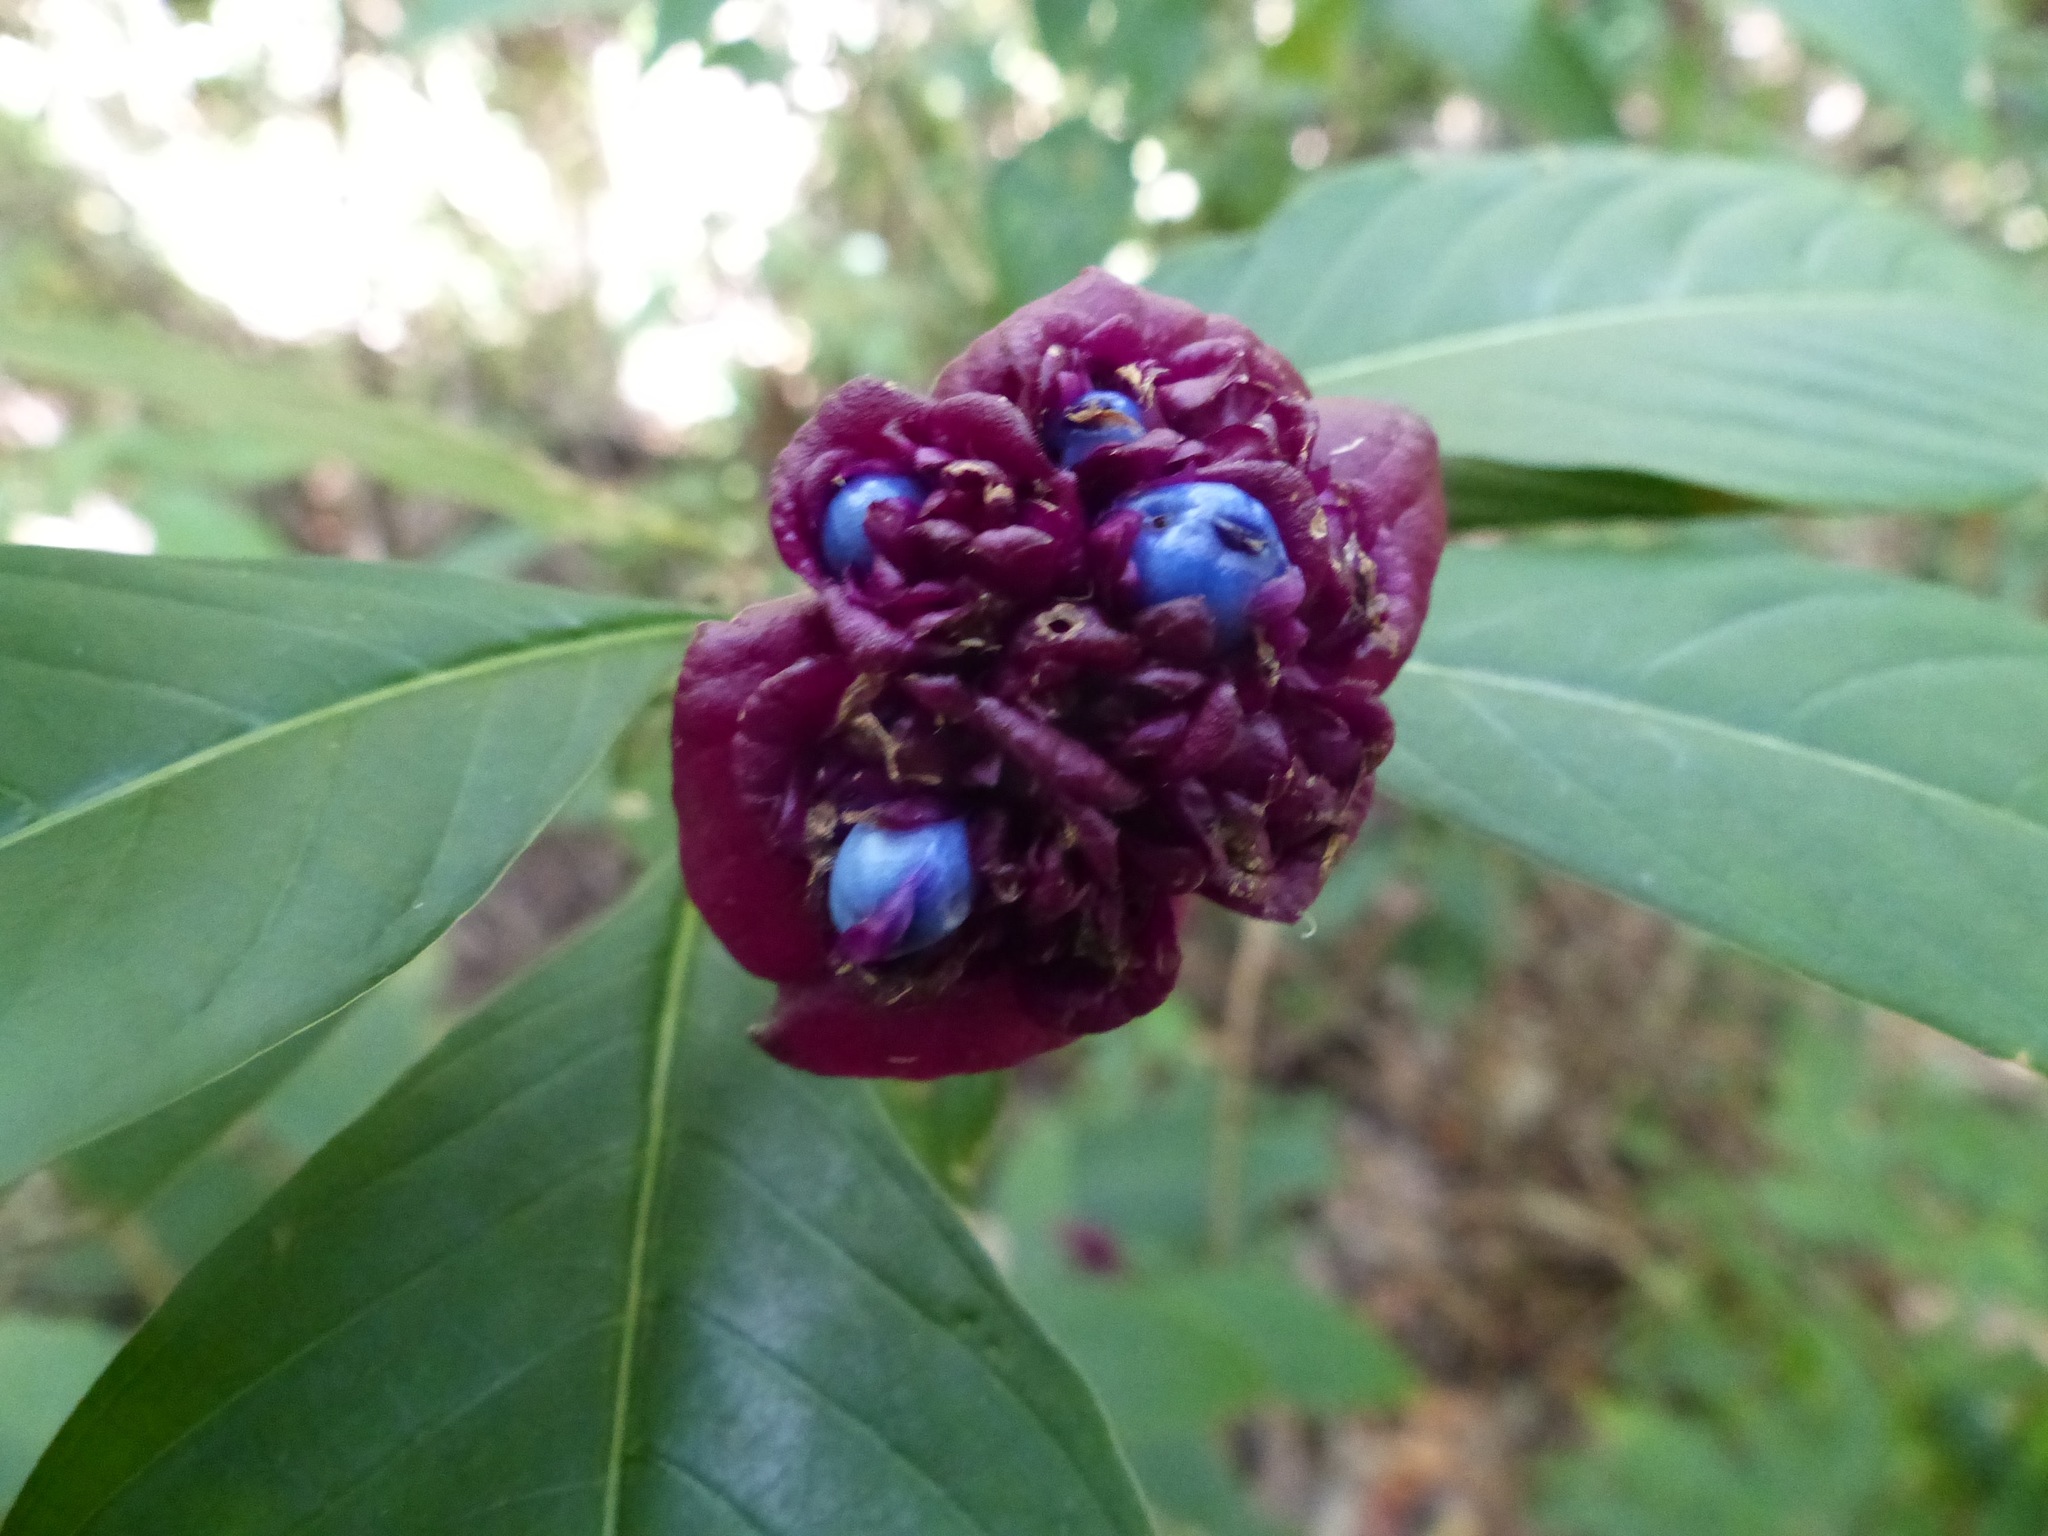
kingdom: Plantae
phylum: Tracheophyta
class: Magnoliopsida
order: Gentianales
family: Rubiaceae
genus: Palicourea
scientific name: Palicourea colorata
